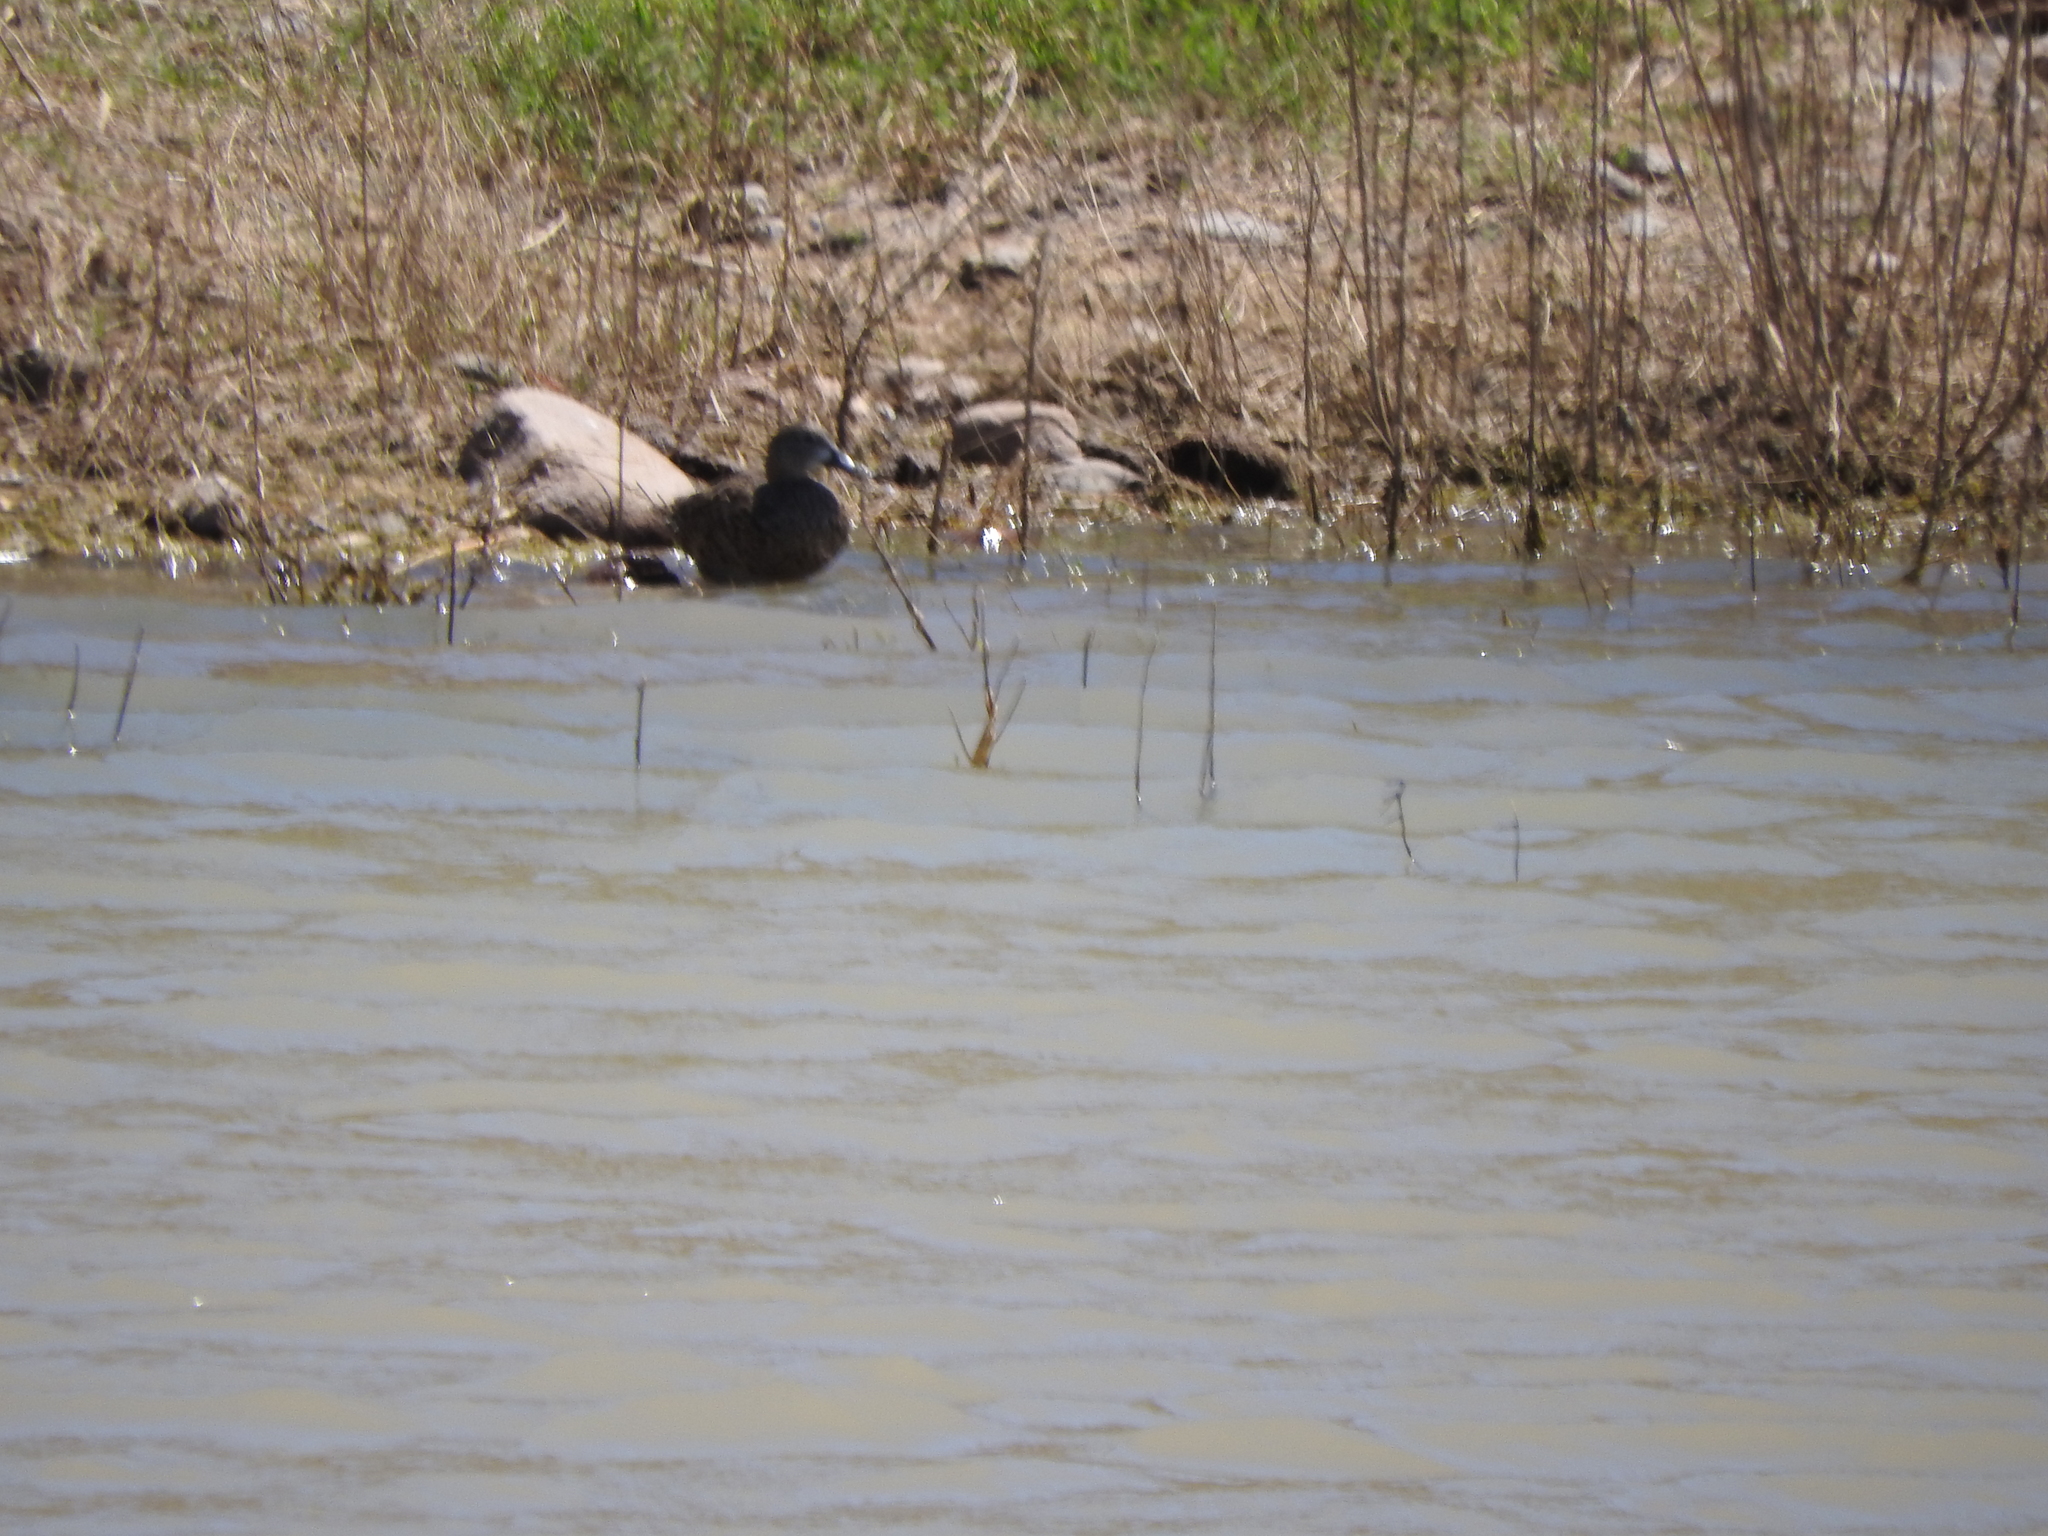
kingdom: Animalia
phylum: Chordata
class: Aves
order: Anseriformes
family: Anatidae
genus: Spatula
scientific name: Spatula discors
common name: Blue-winged teal
